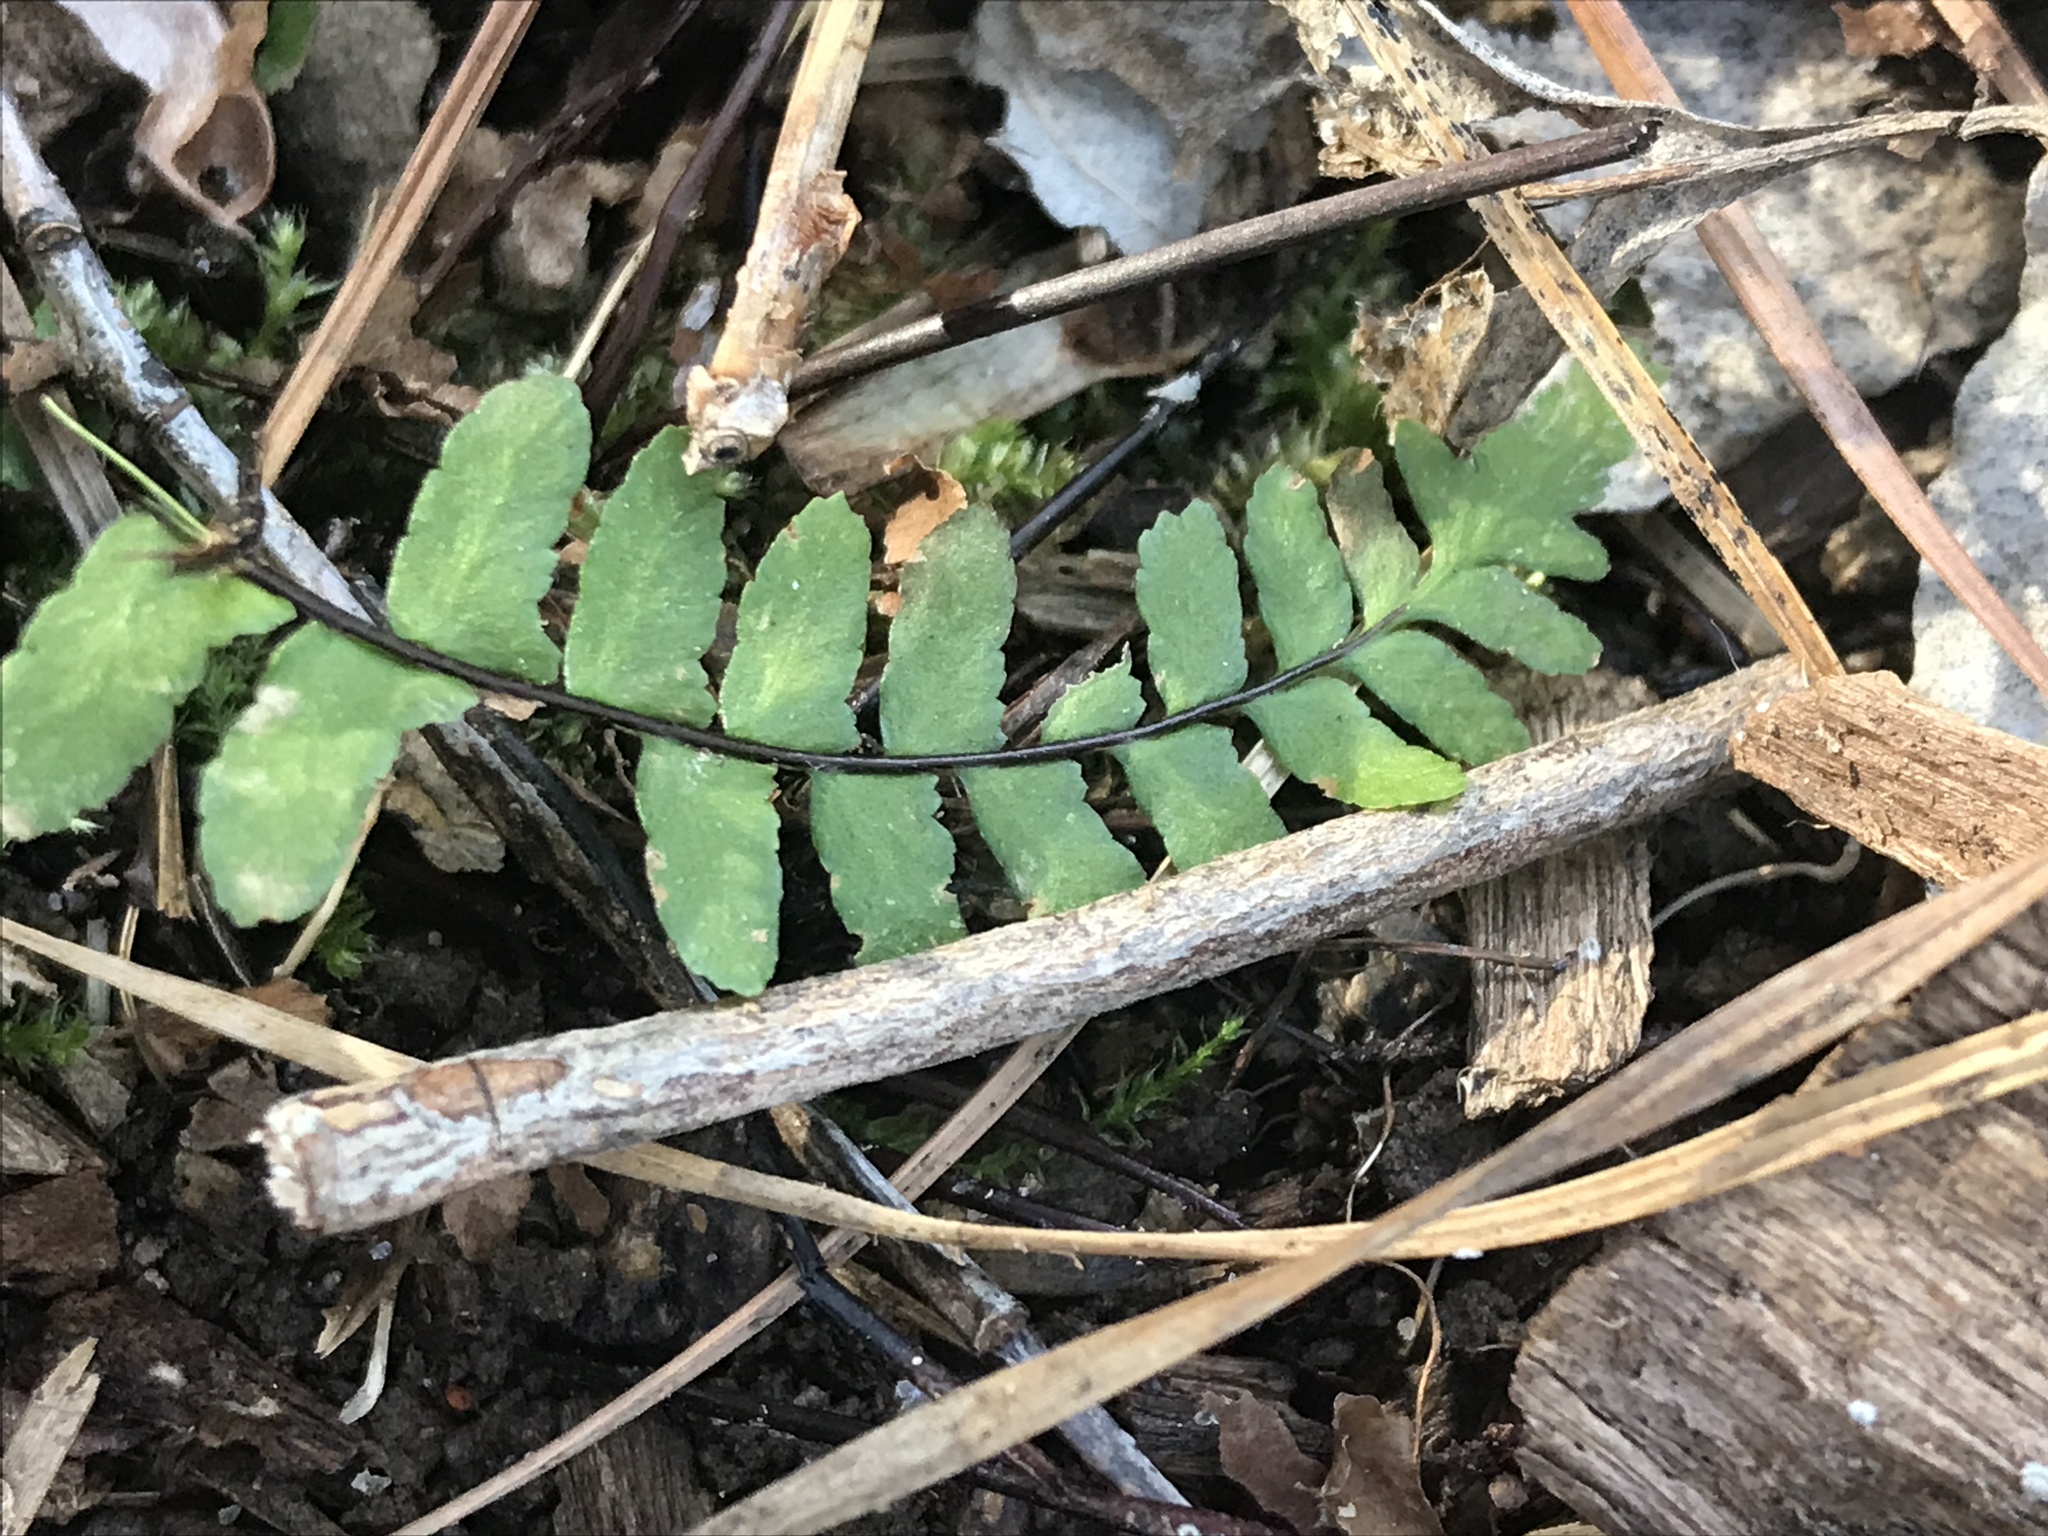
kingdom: Plantae
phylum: Tracheophyta
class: Polypodiopsida
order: Polypodiales
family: Aspleniaceae
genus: Asplenium
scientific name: Asplenium platyneuron
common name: Ebony spleenwort
